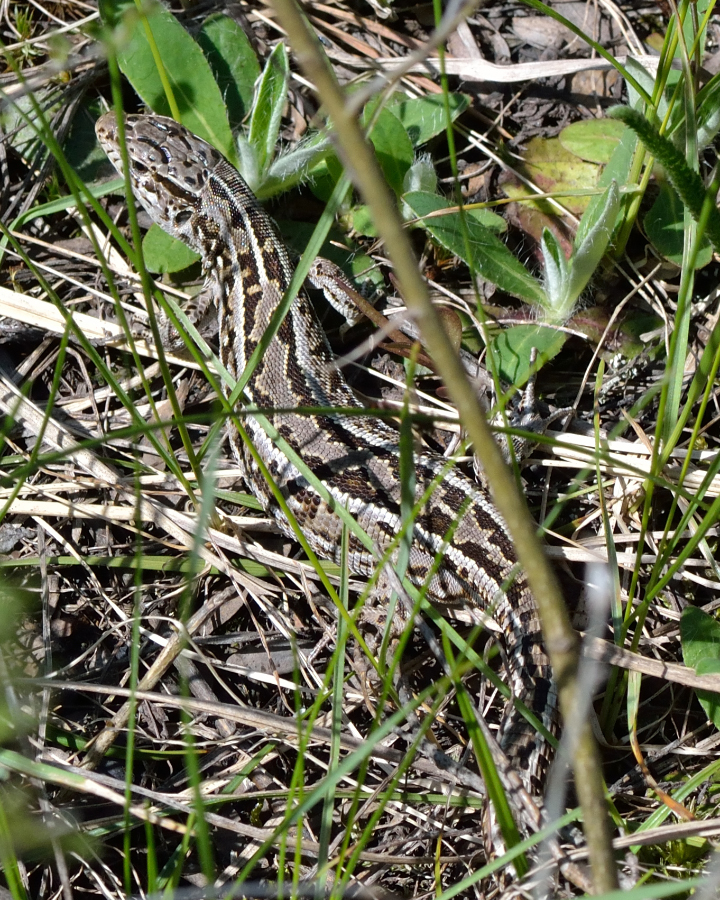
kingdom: Animalia
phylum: Chordata
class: Squamata
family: Lacertidae
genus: Lacerta
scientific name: Lacerta agilis
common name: Sand lizard
